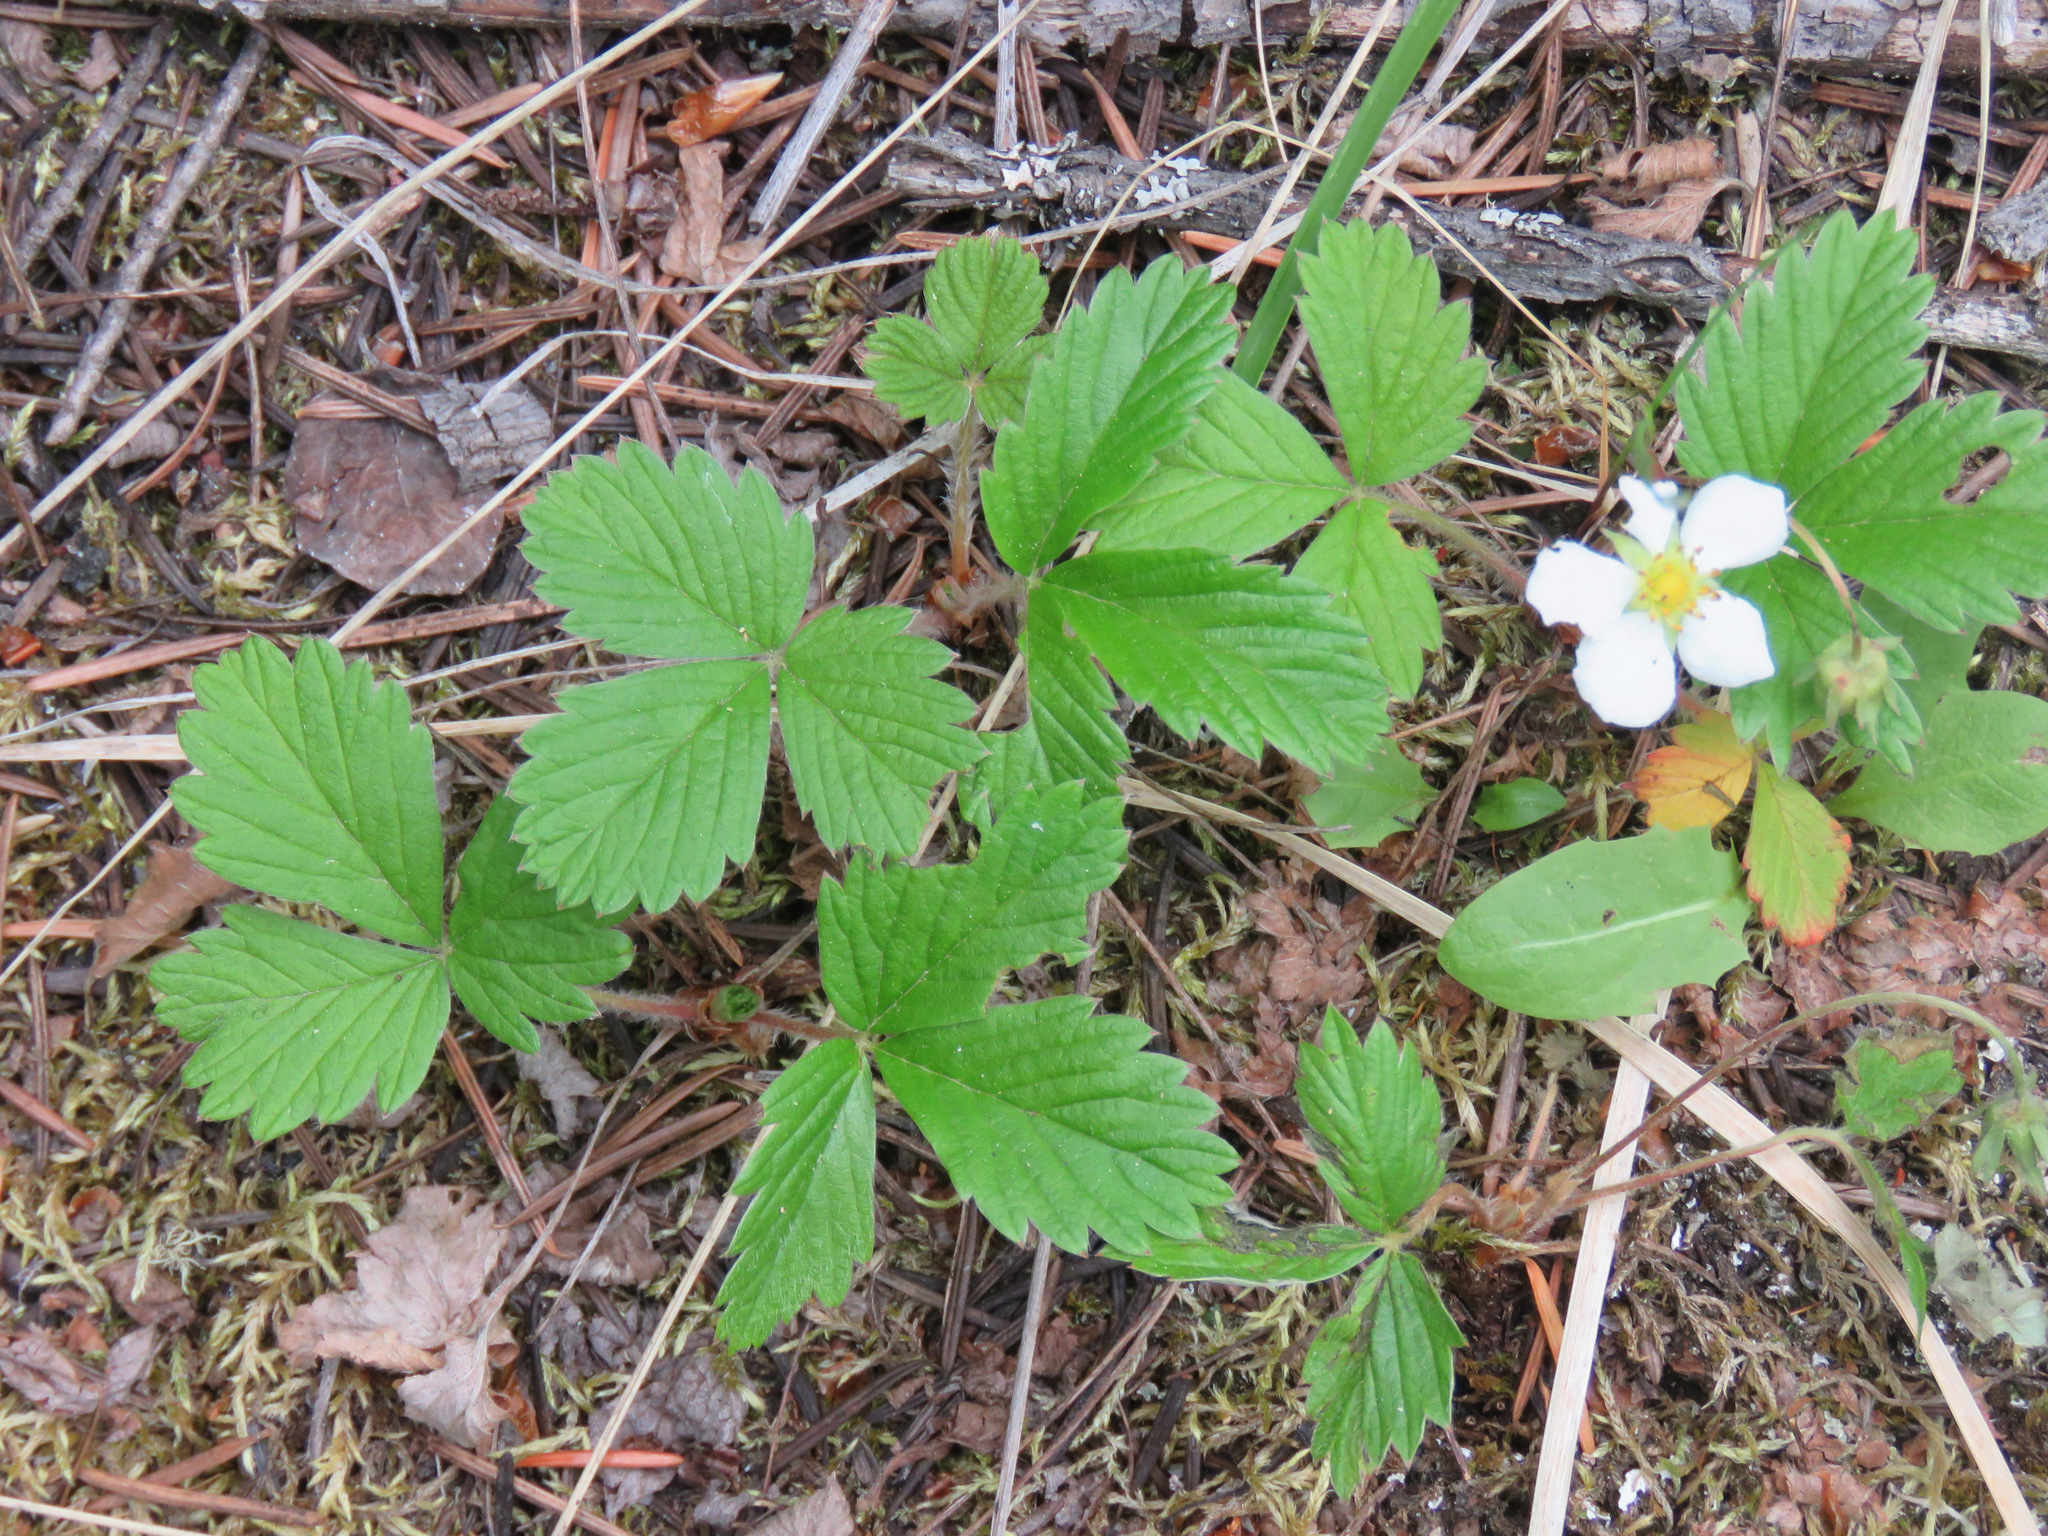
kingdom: Plantae
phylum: Tracheophyta
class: Magnoliopsida
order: Rosales
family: Rosaceae
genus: Fragaria
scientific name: Fragaria vesca
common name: Wild strawberry
